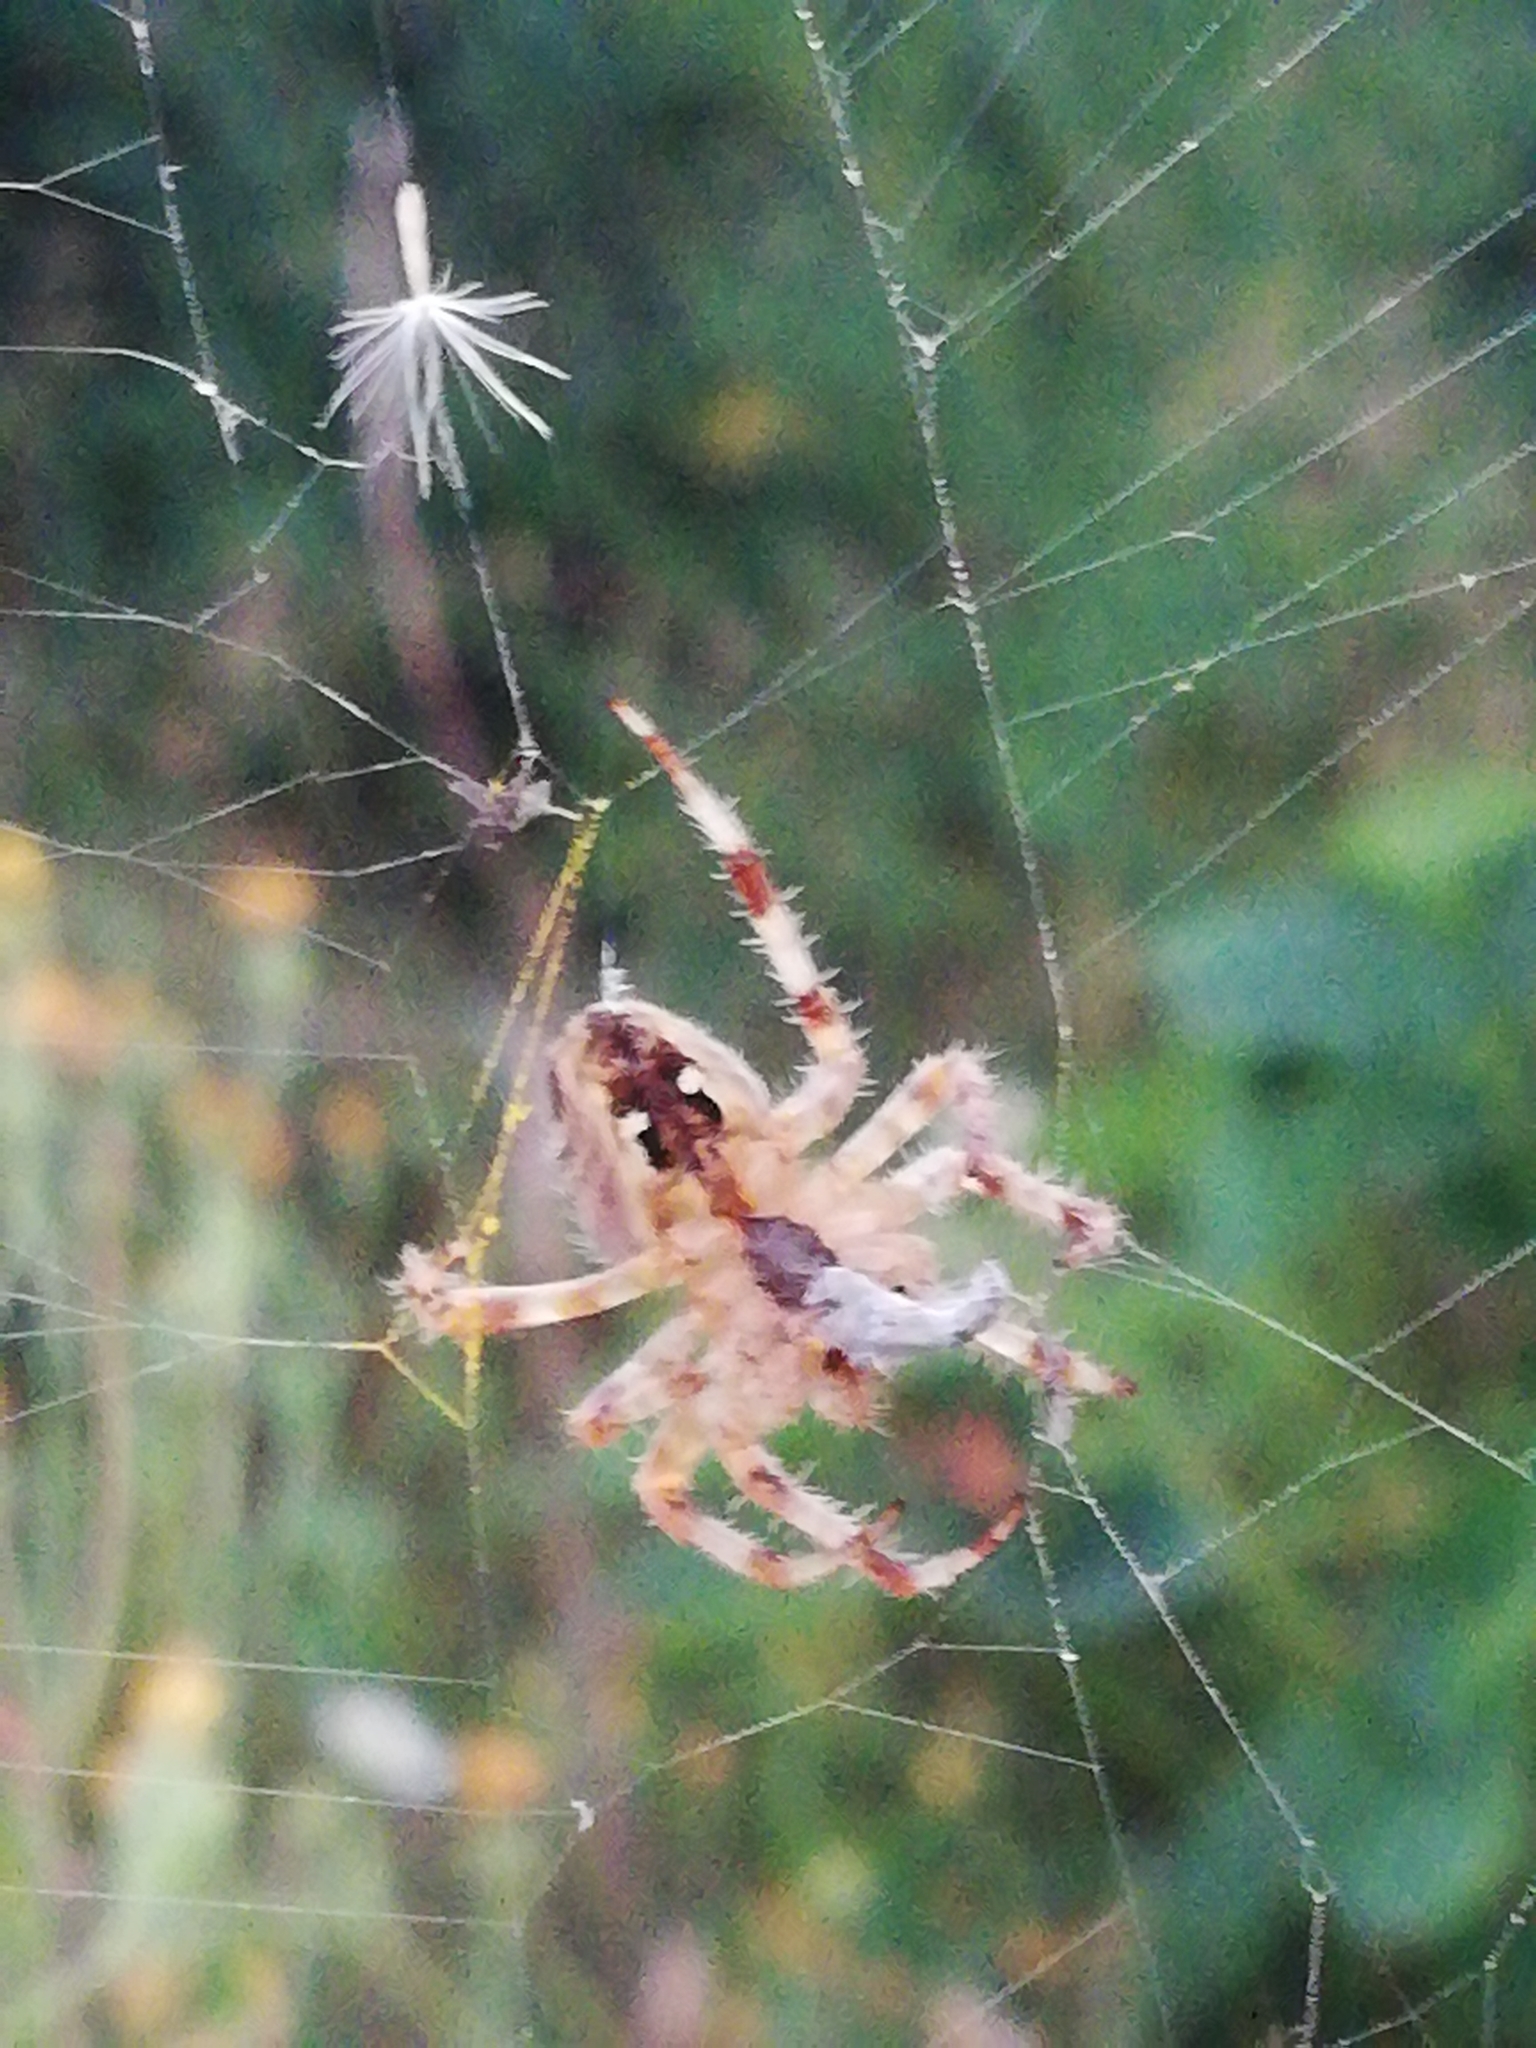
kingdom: Animalia
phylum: Arthropoda
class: Arachnida
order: Araneae
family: Araneidae
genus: Araneus
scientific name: Araneus diadematus
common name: Cross orbweaver
